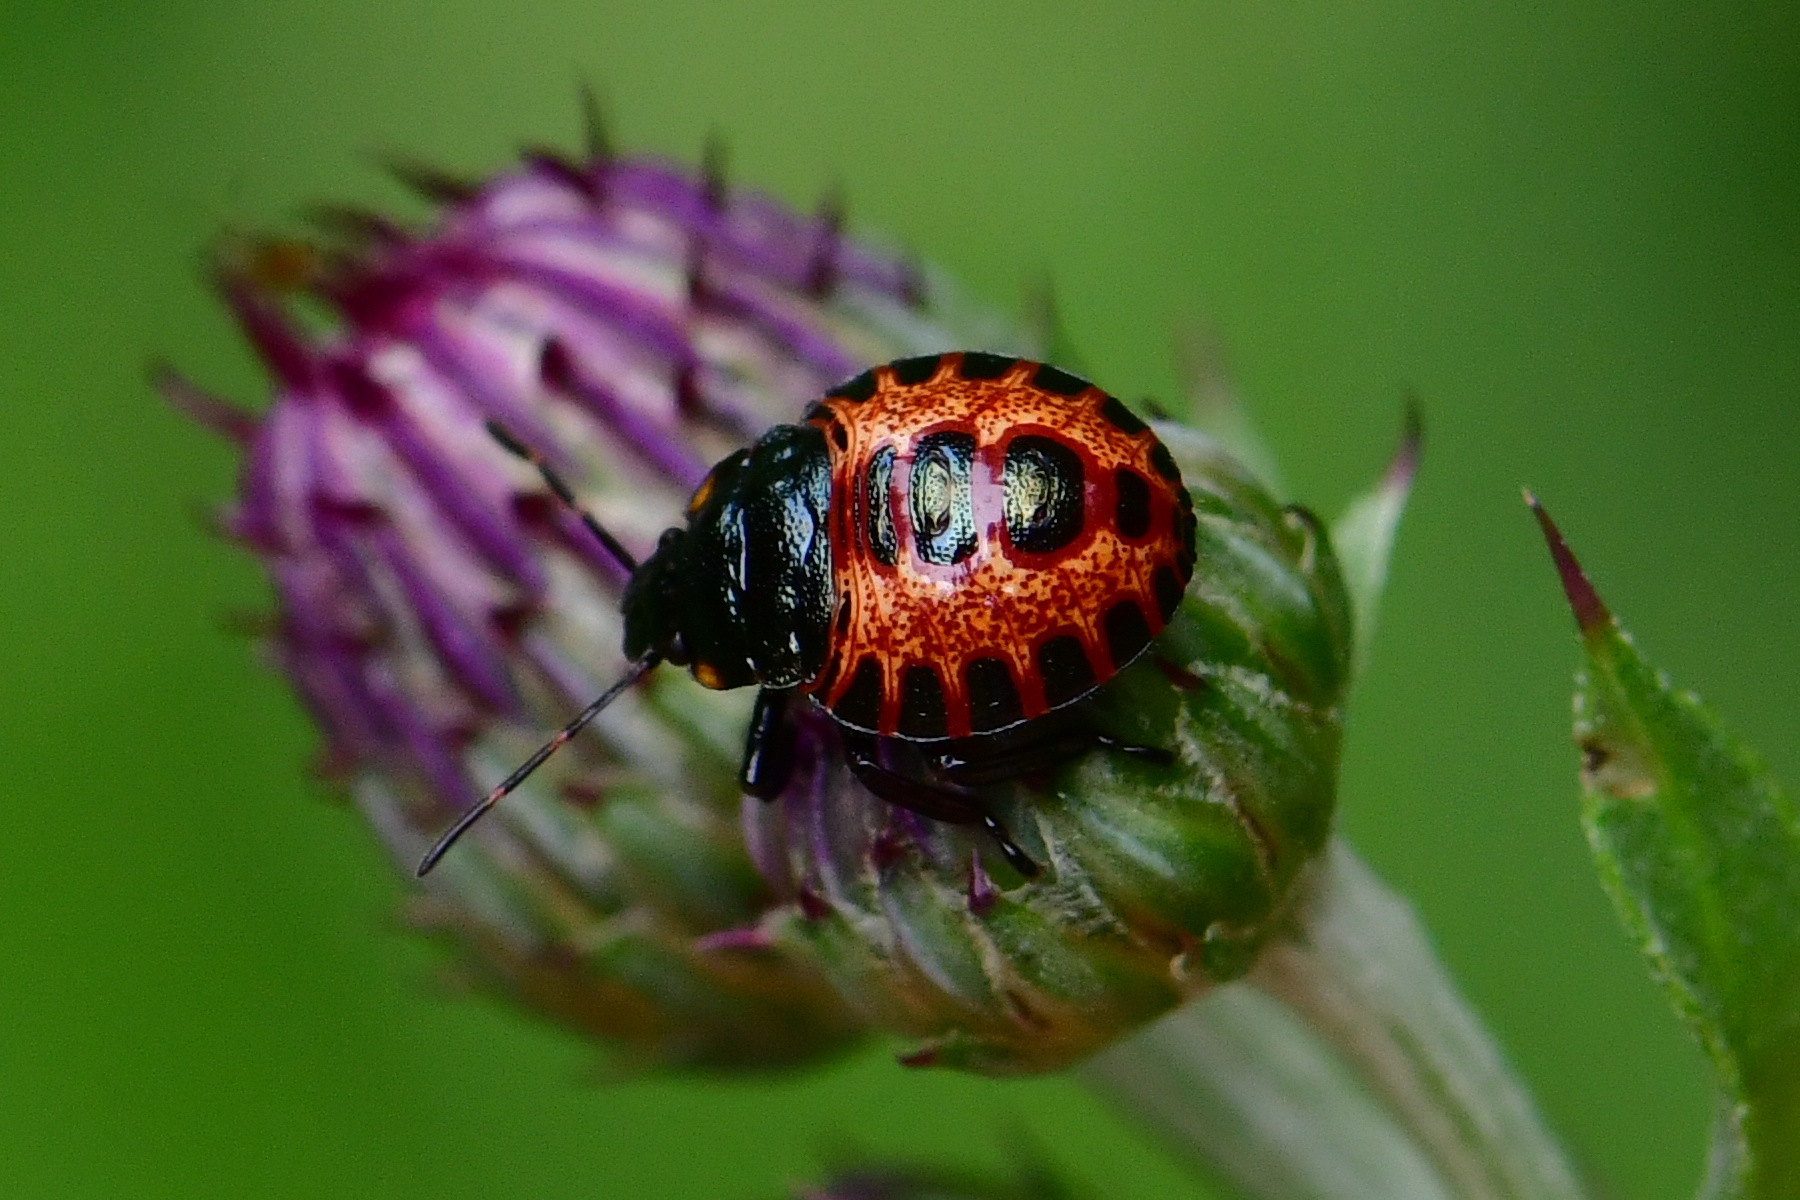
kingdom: Animalia
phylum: Arthropoda
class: Insecta
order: Hemiptera
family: Pentatomidae
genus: Pinthaeus
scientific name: Pinthaeus sanguinipes
